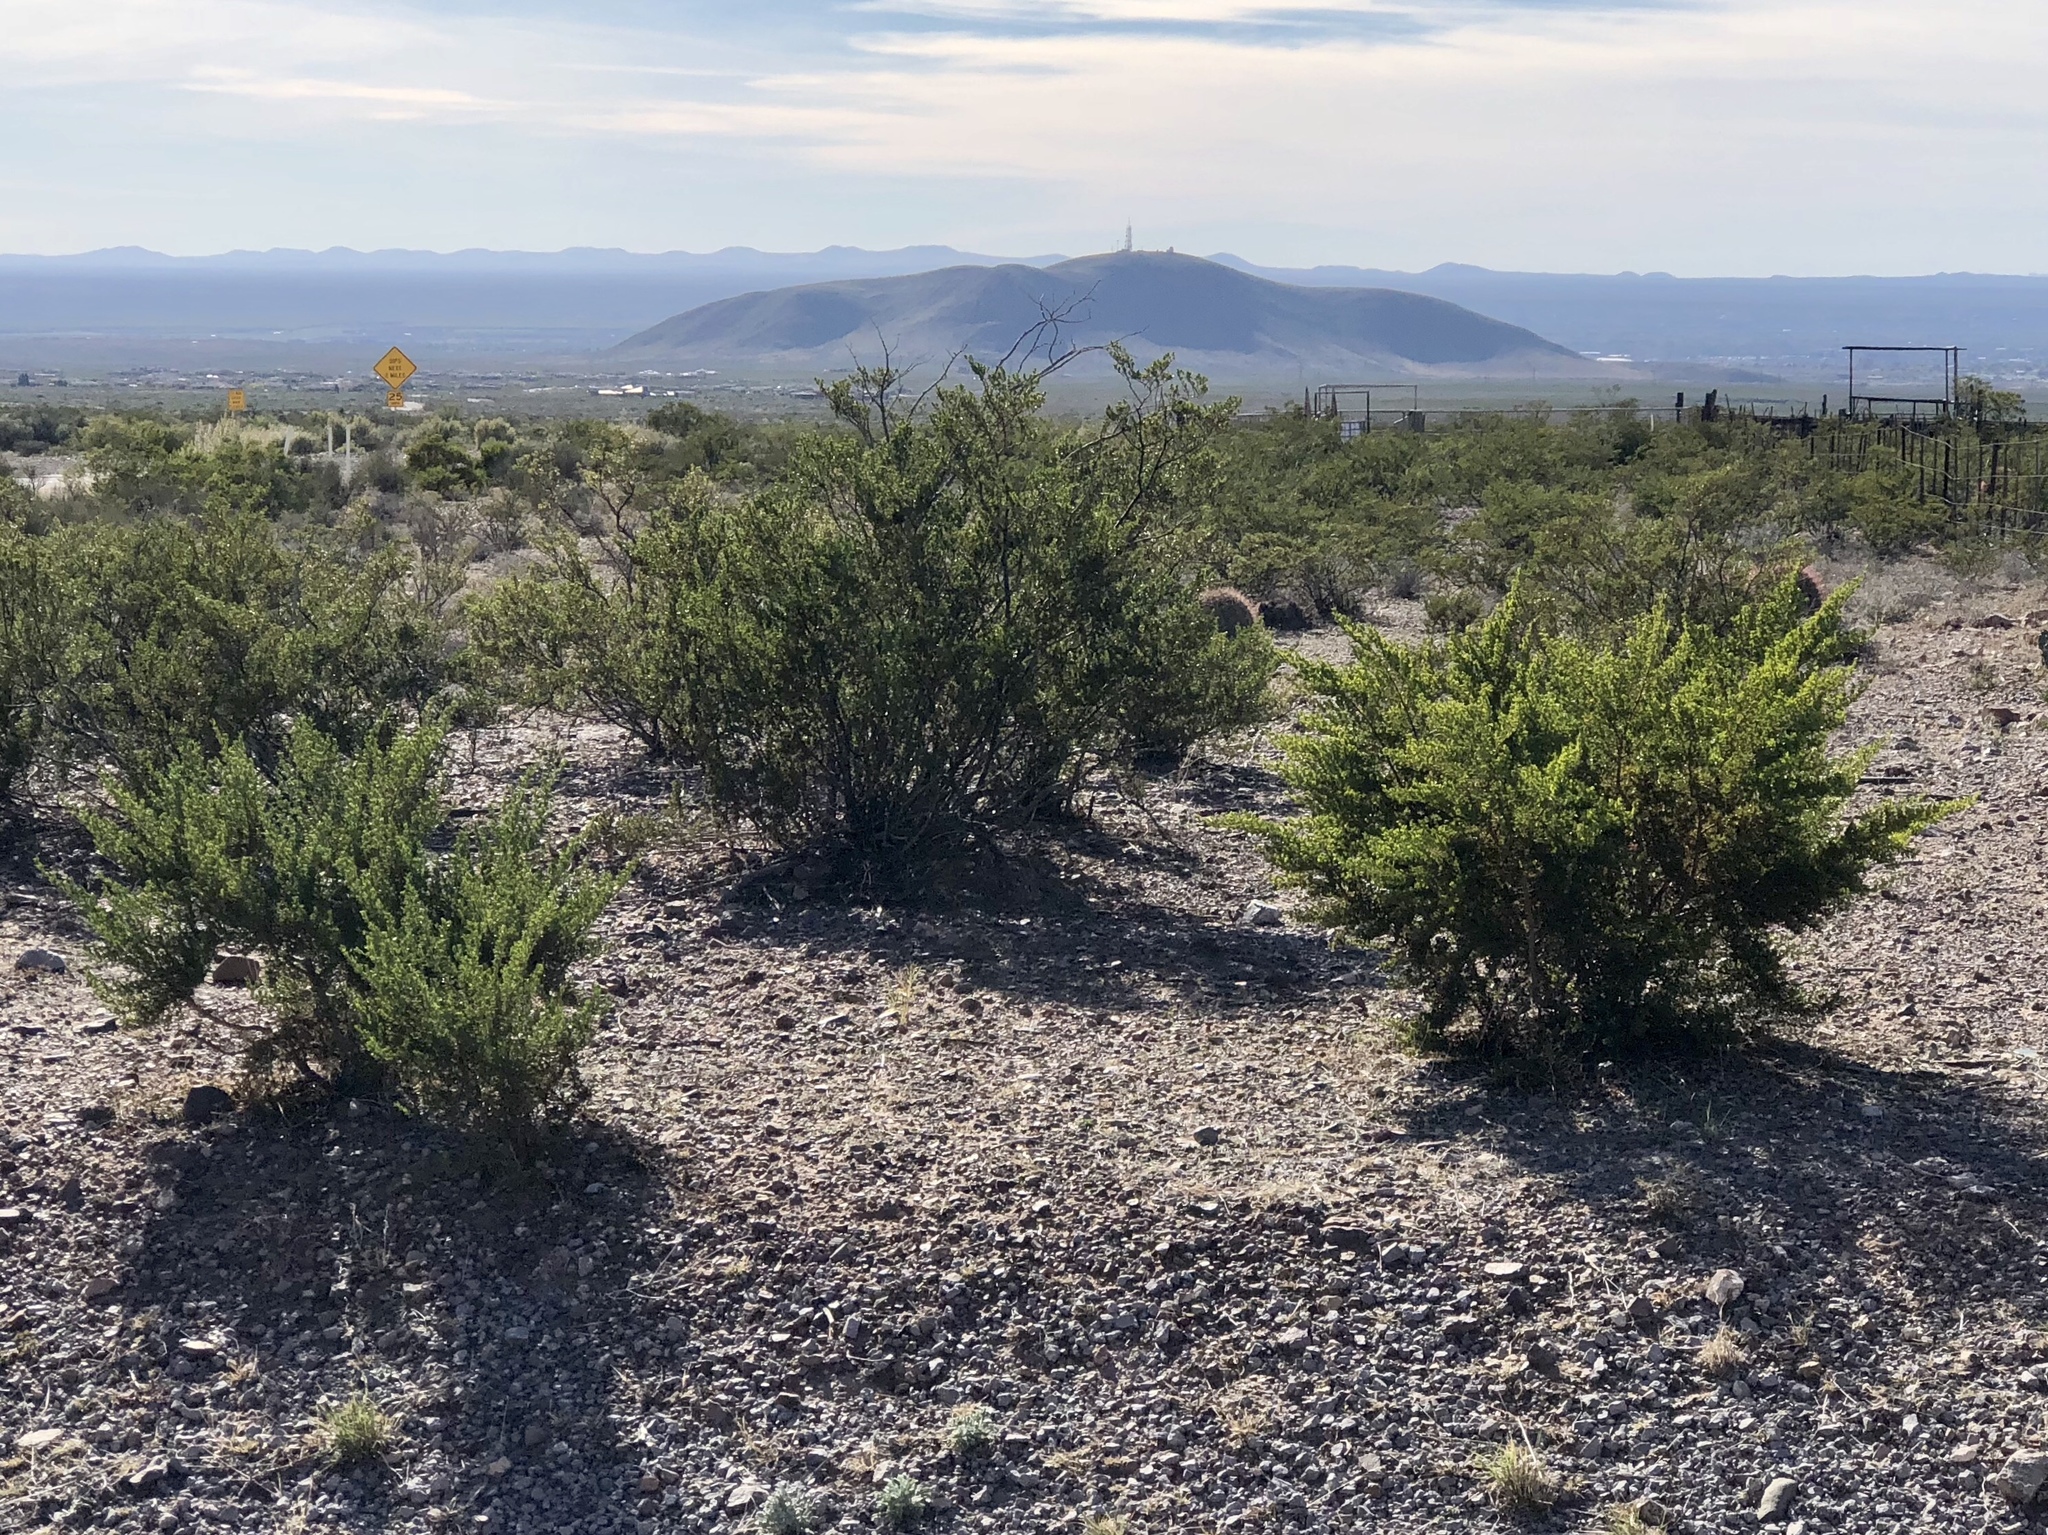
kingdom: Plantae
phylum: Tracheophyta
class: Magnoliopsida
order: Zygophyllales
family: Zygophyllaceae
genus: Larrea
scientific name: Larrea tridentata
